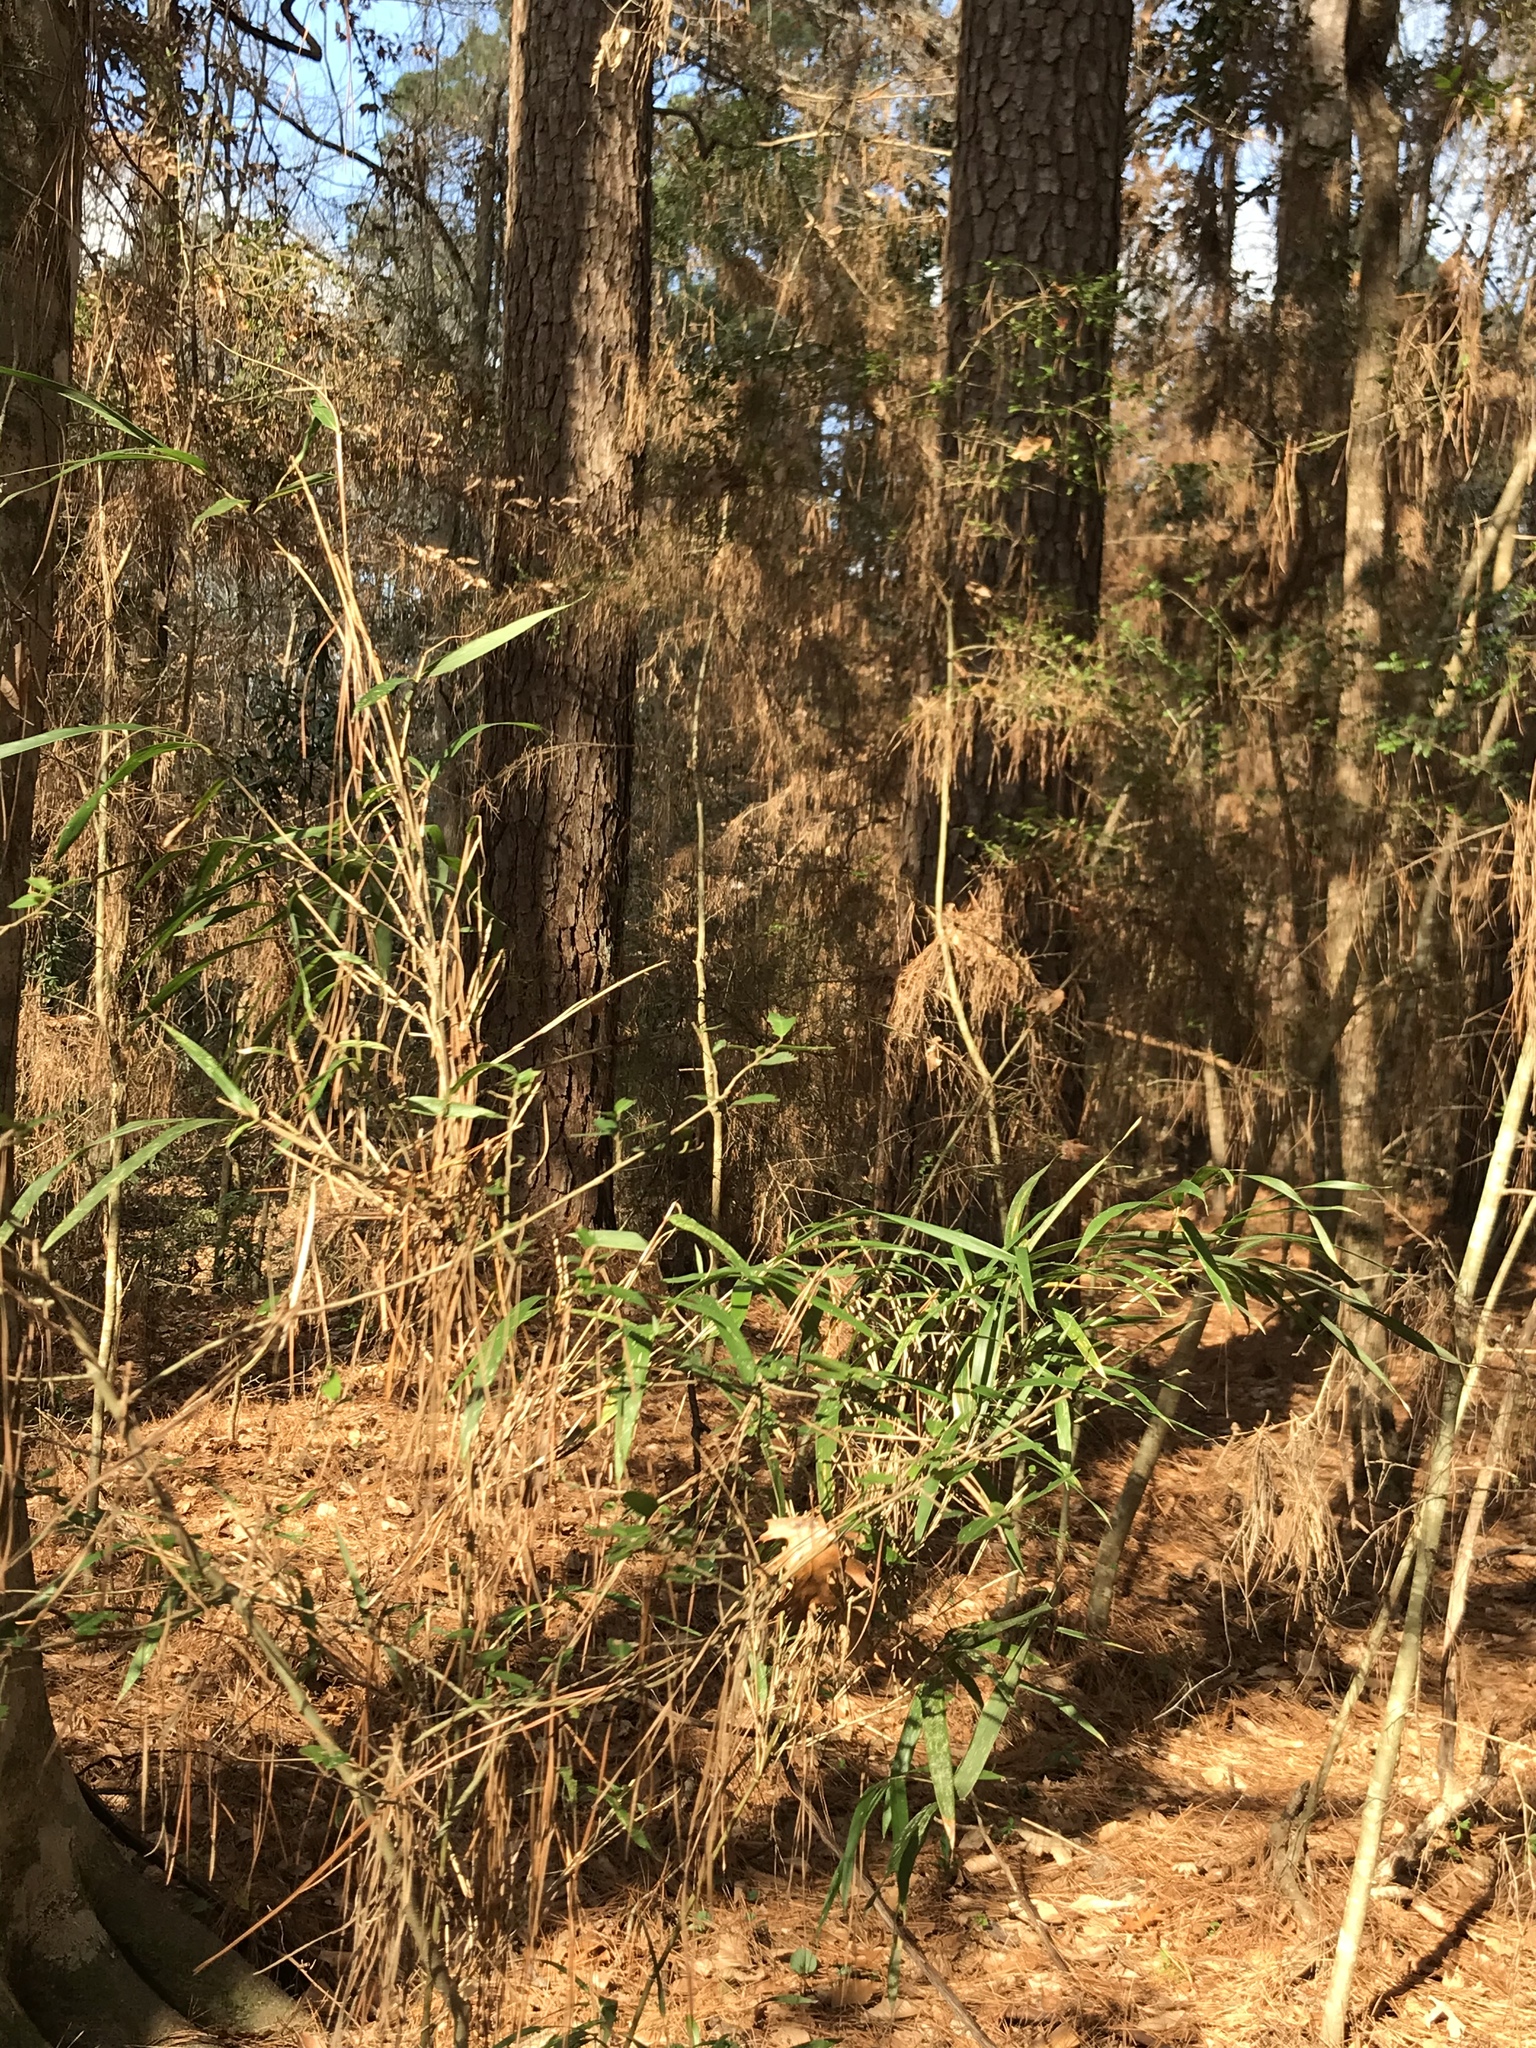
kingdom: Plantae
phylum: Tracheophyta
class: Liliopsida
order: Poales
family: Poaceae
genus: Arundinaria
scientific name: Arundinaria gigantea
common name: Giant cane
